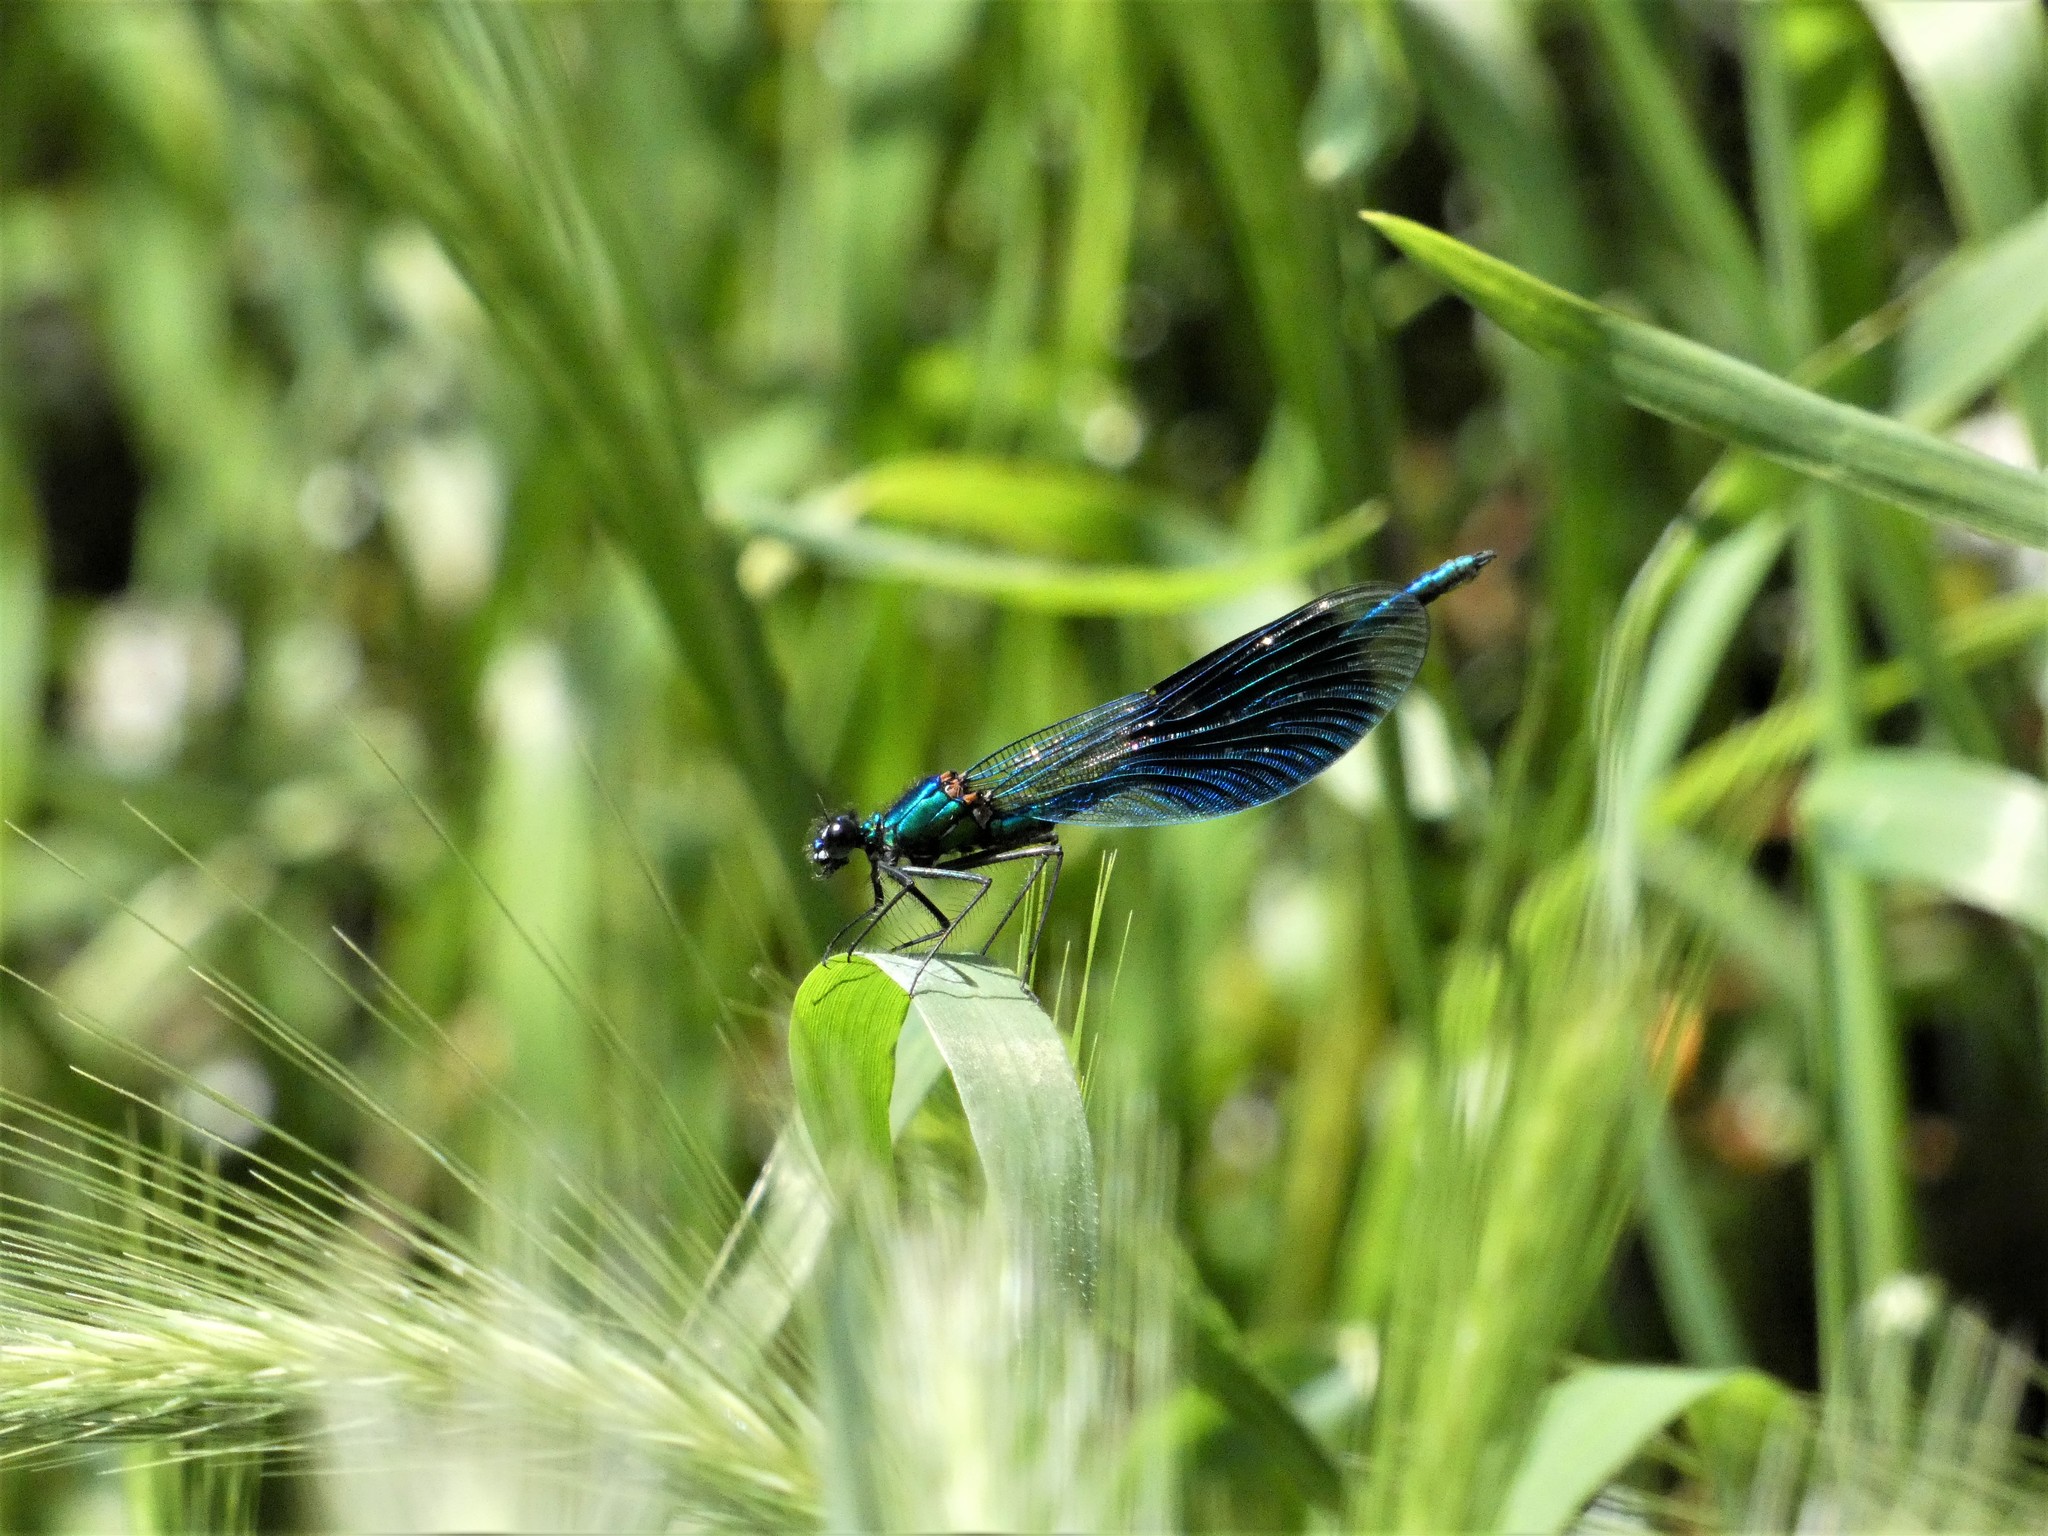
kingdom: Animalia
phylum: Arthropoda
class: Insecta
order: Odonata
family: Calopterygidae
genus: Calopteryx
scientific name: Calopteryx splendens
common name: Banded demoiselle
